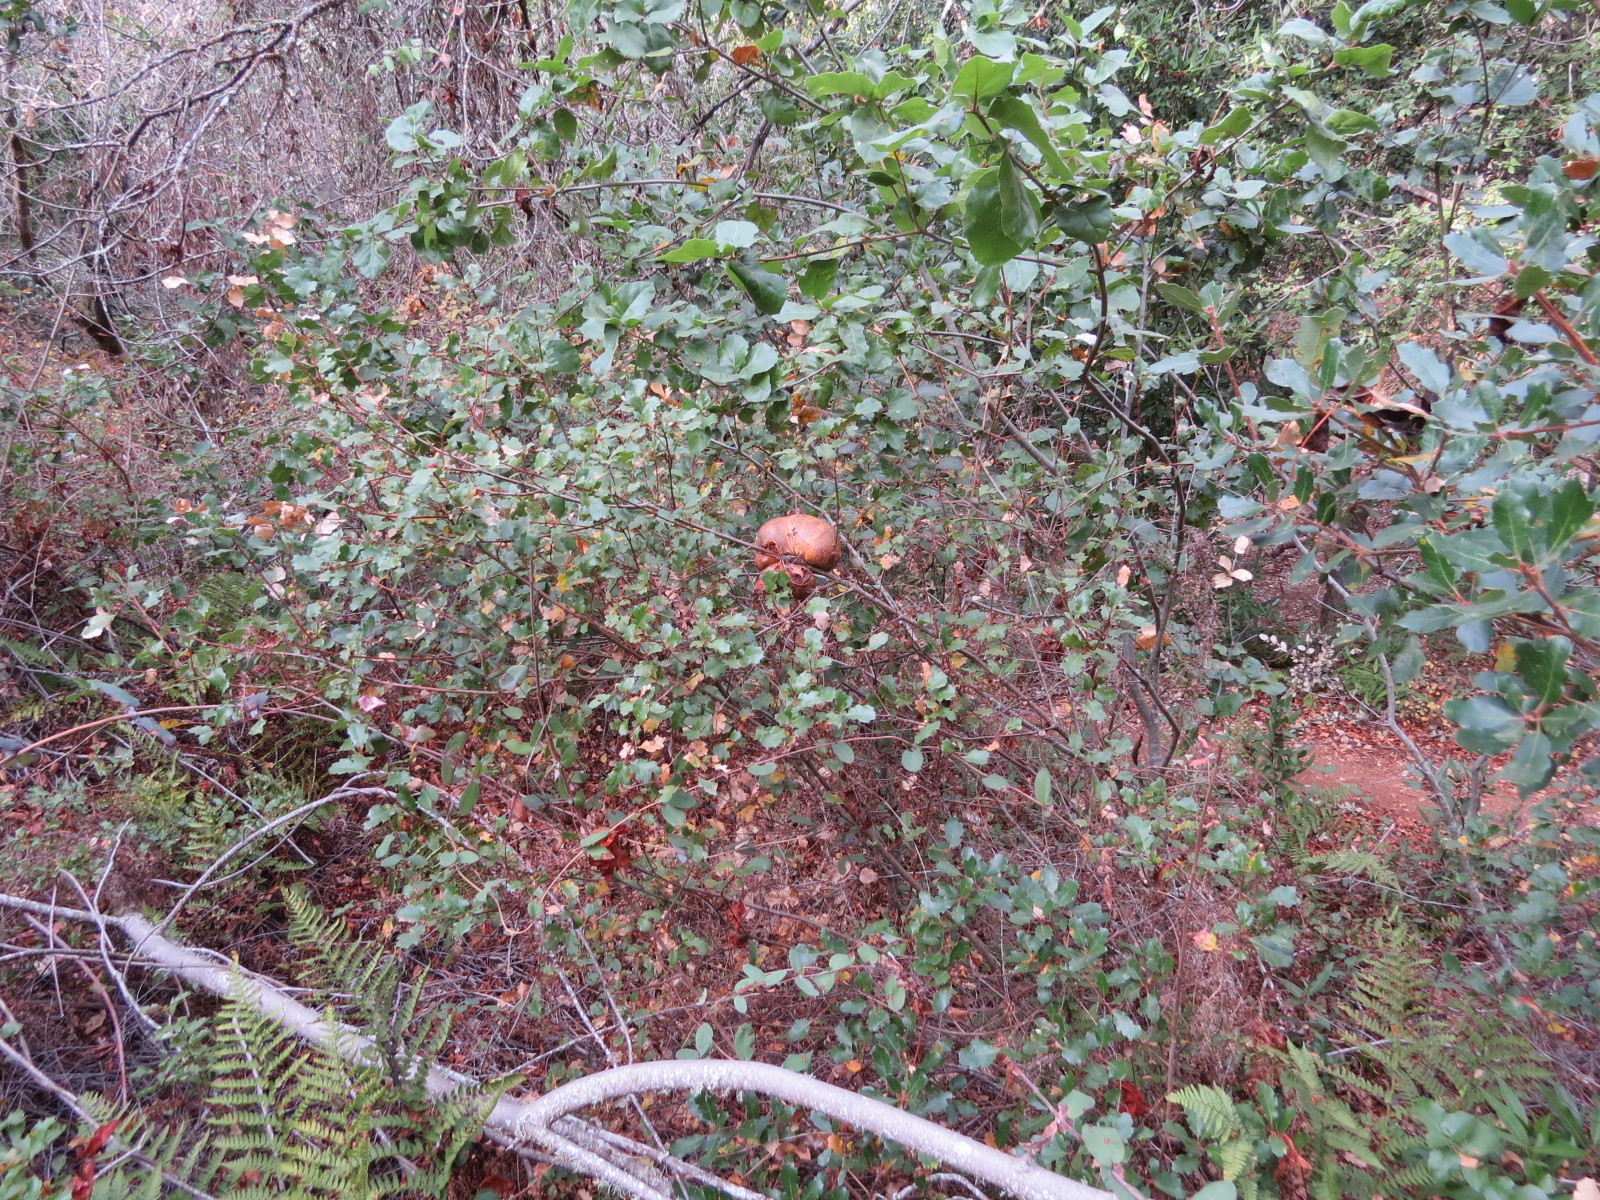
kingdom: Animalia
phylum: Arthropoda
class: Insecta
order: Hymenoptera
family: Cynipidae
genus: Andricus
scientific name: Andricus quercuscalifornicus
